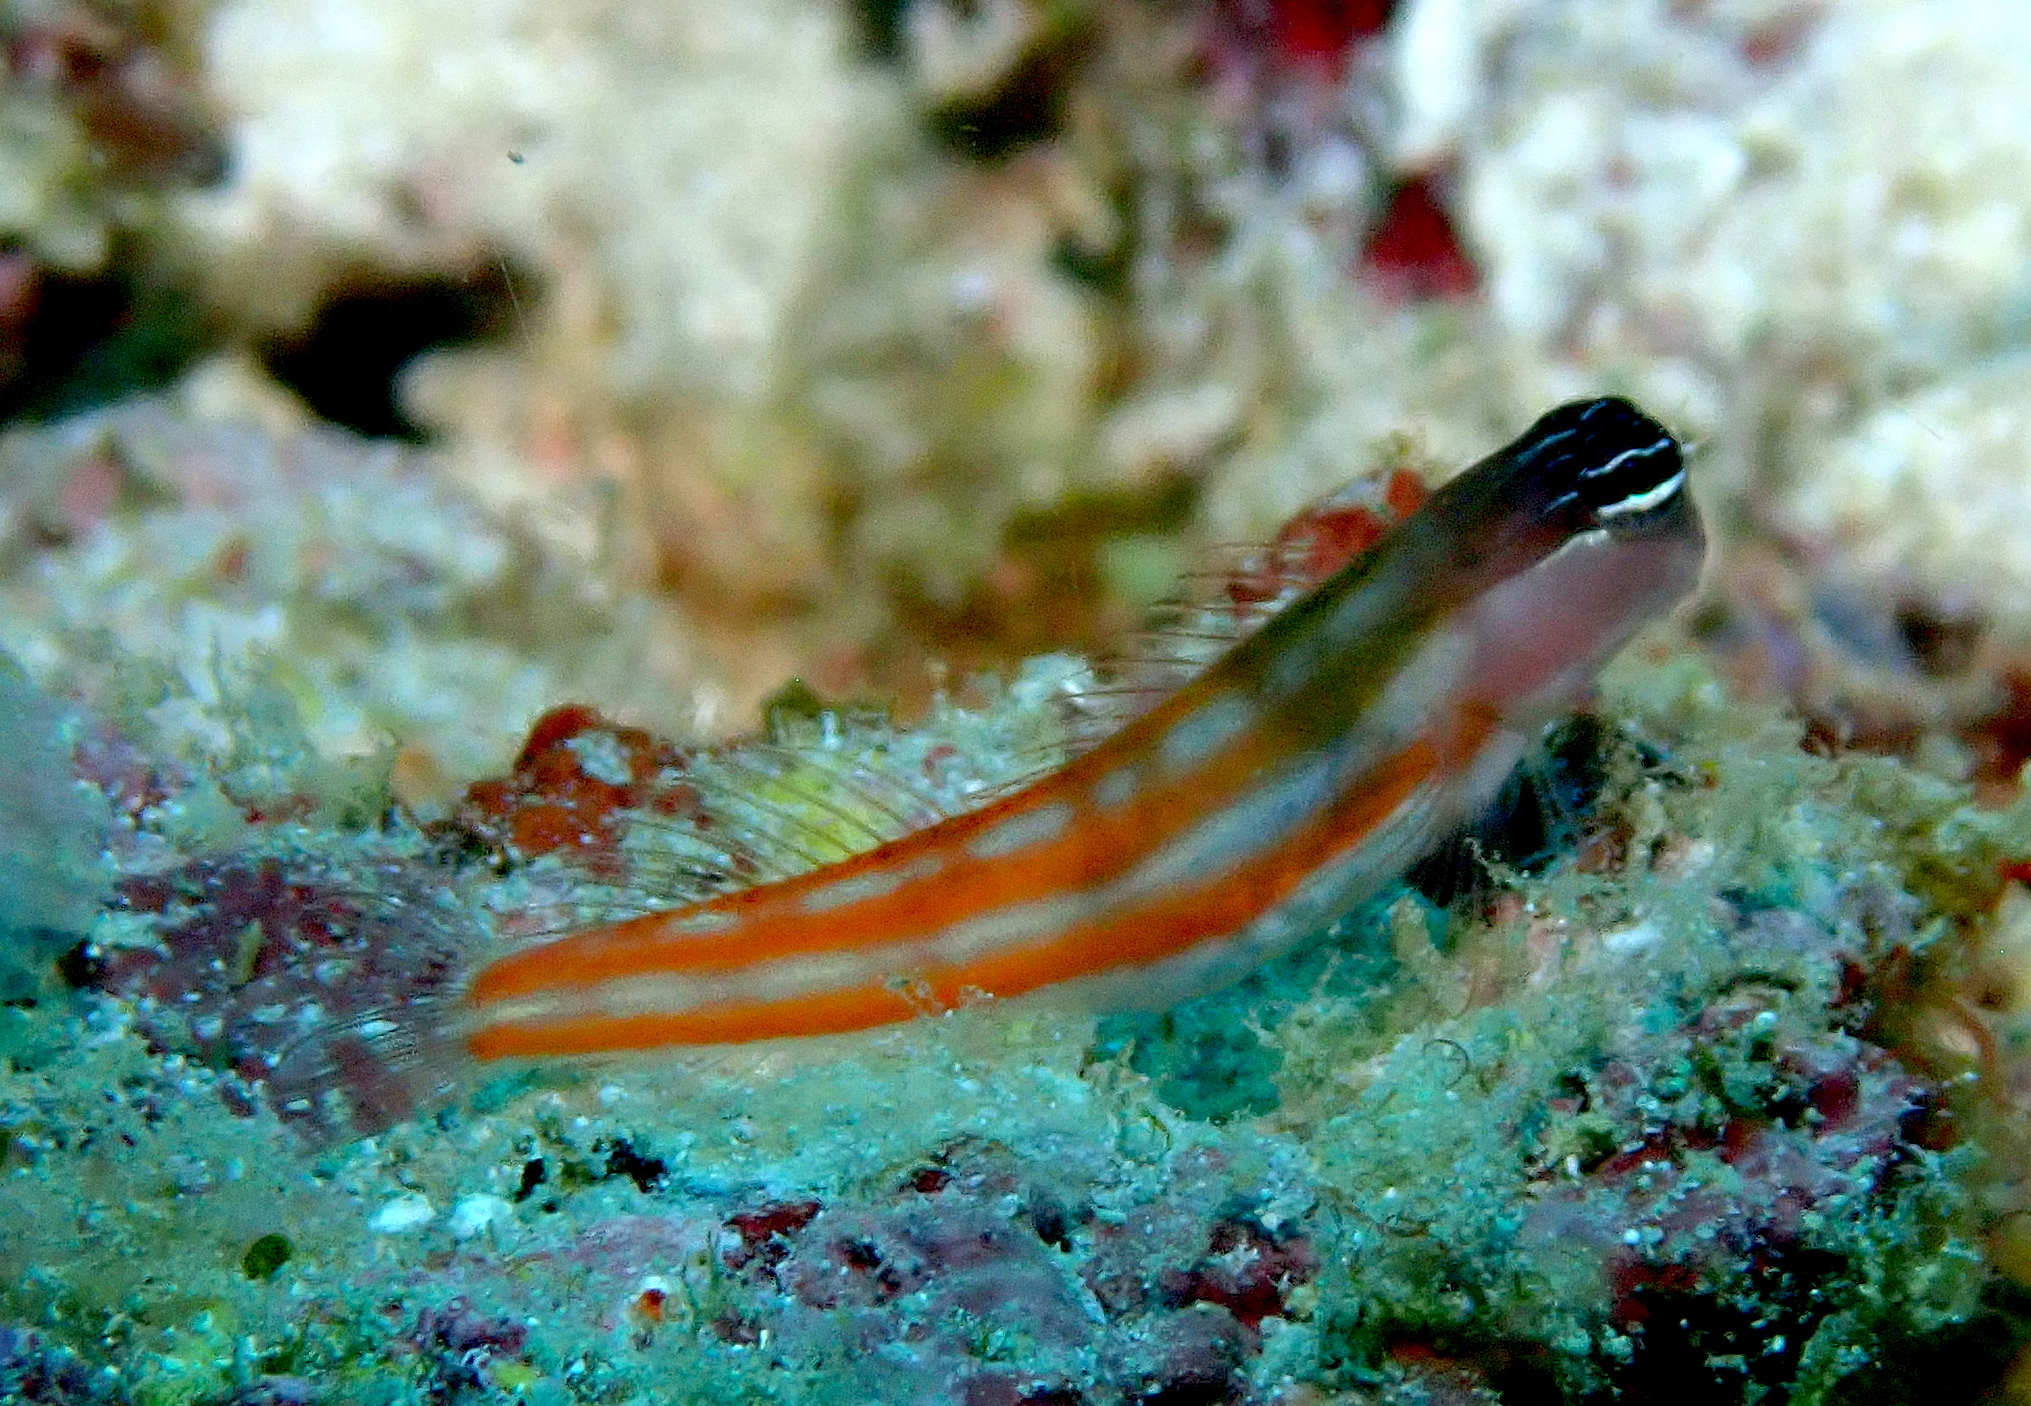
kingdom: Animalia
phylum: Chordata
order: Perciformes
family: Blenniidae
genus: Ecsenius
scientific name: Ecsenius bathi
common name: Bath's comb-tooth
